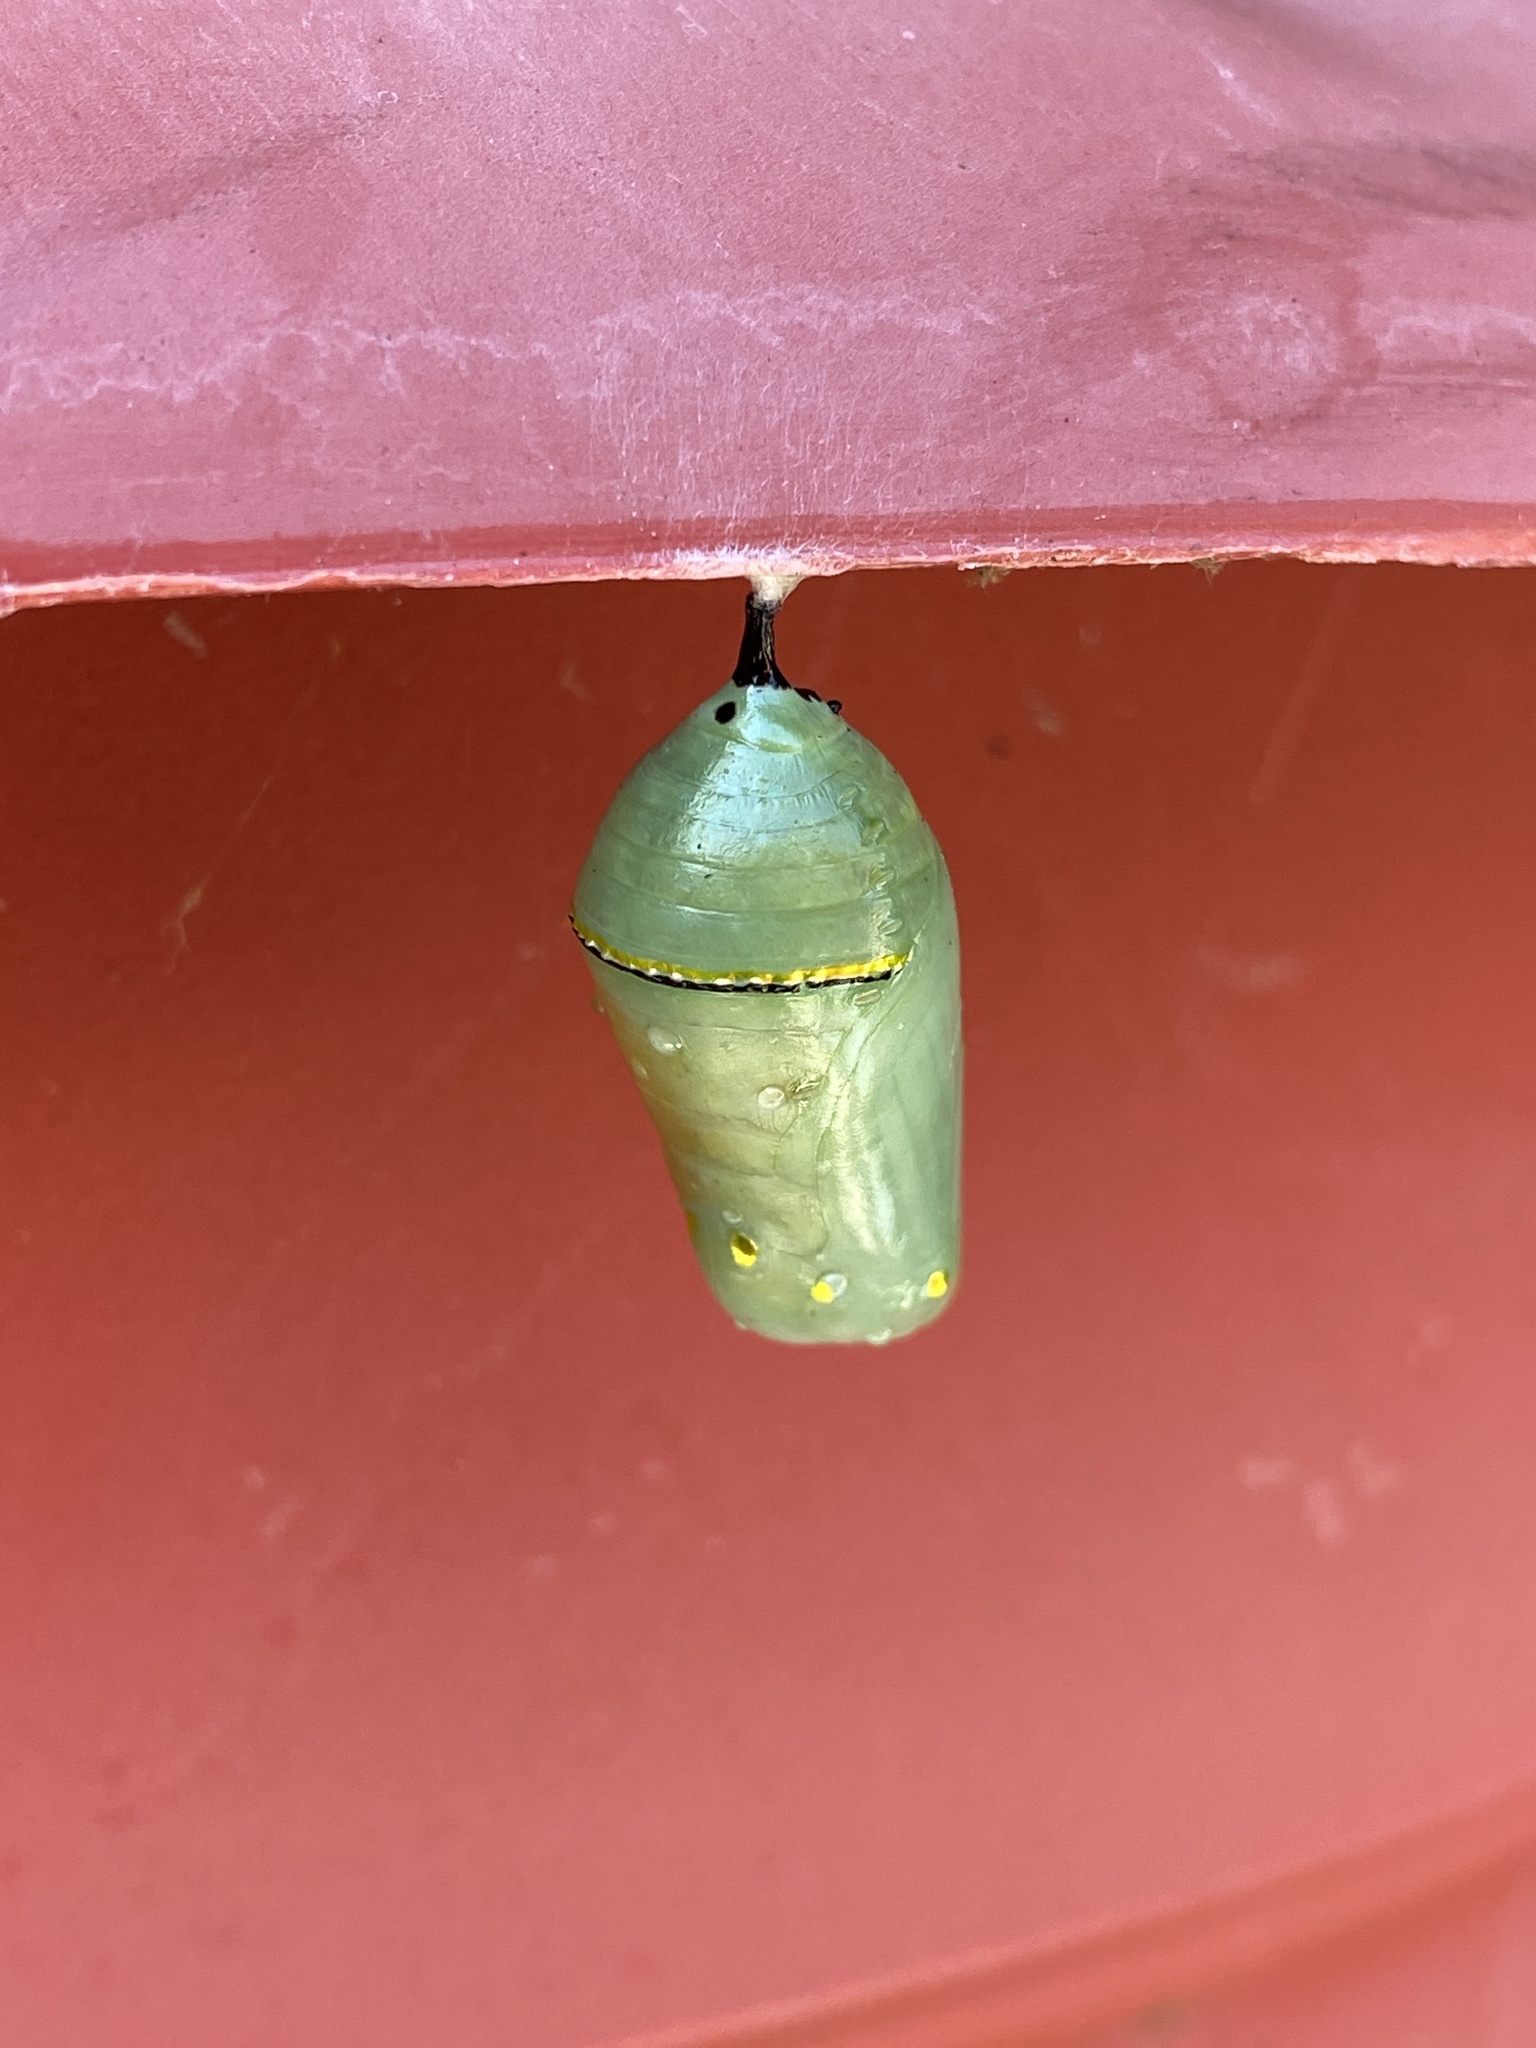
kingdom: Animalia
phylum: Arthropoda
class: Insecta
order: Lepidoptera
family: Nymphalidae
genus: Danaus
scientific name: Danaus plexippus
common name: Monarch
